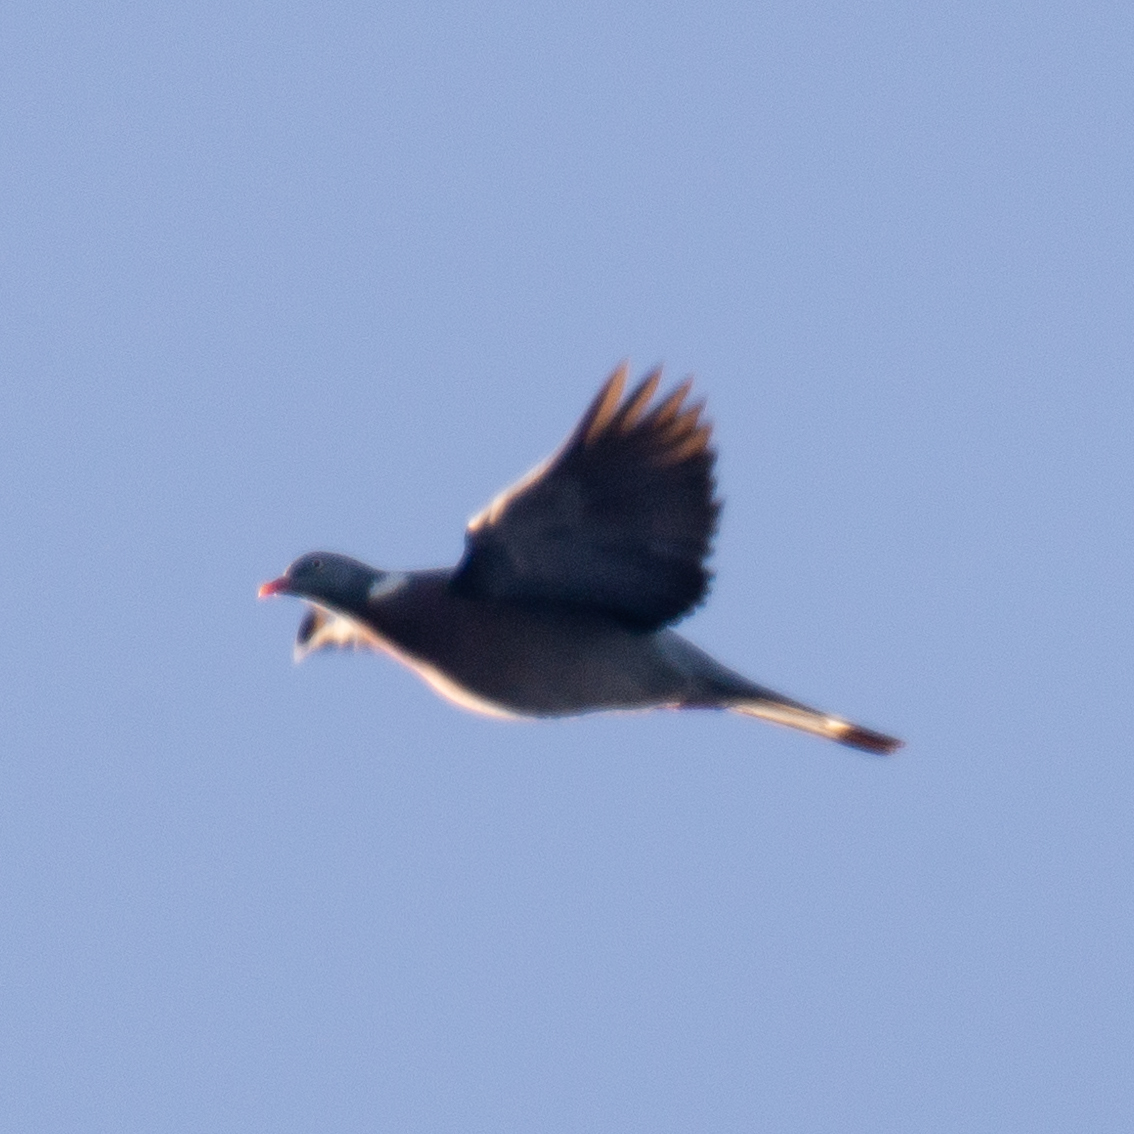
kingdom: Animalia
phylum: Chordata
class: Aves
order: Columbiformes
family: Columbidae
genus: Columba
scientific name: Columba palumbus
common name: Common wood pigeon
